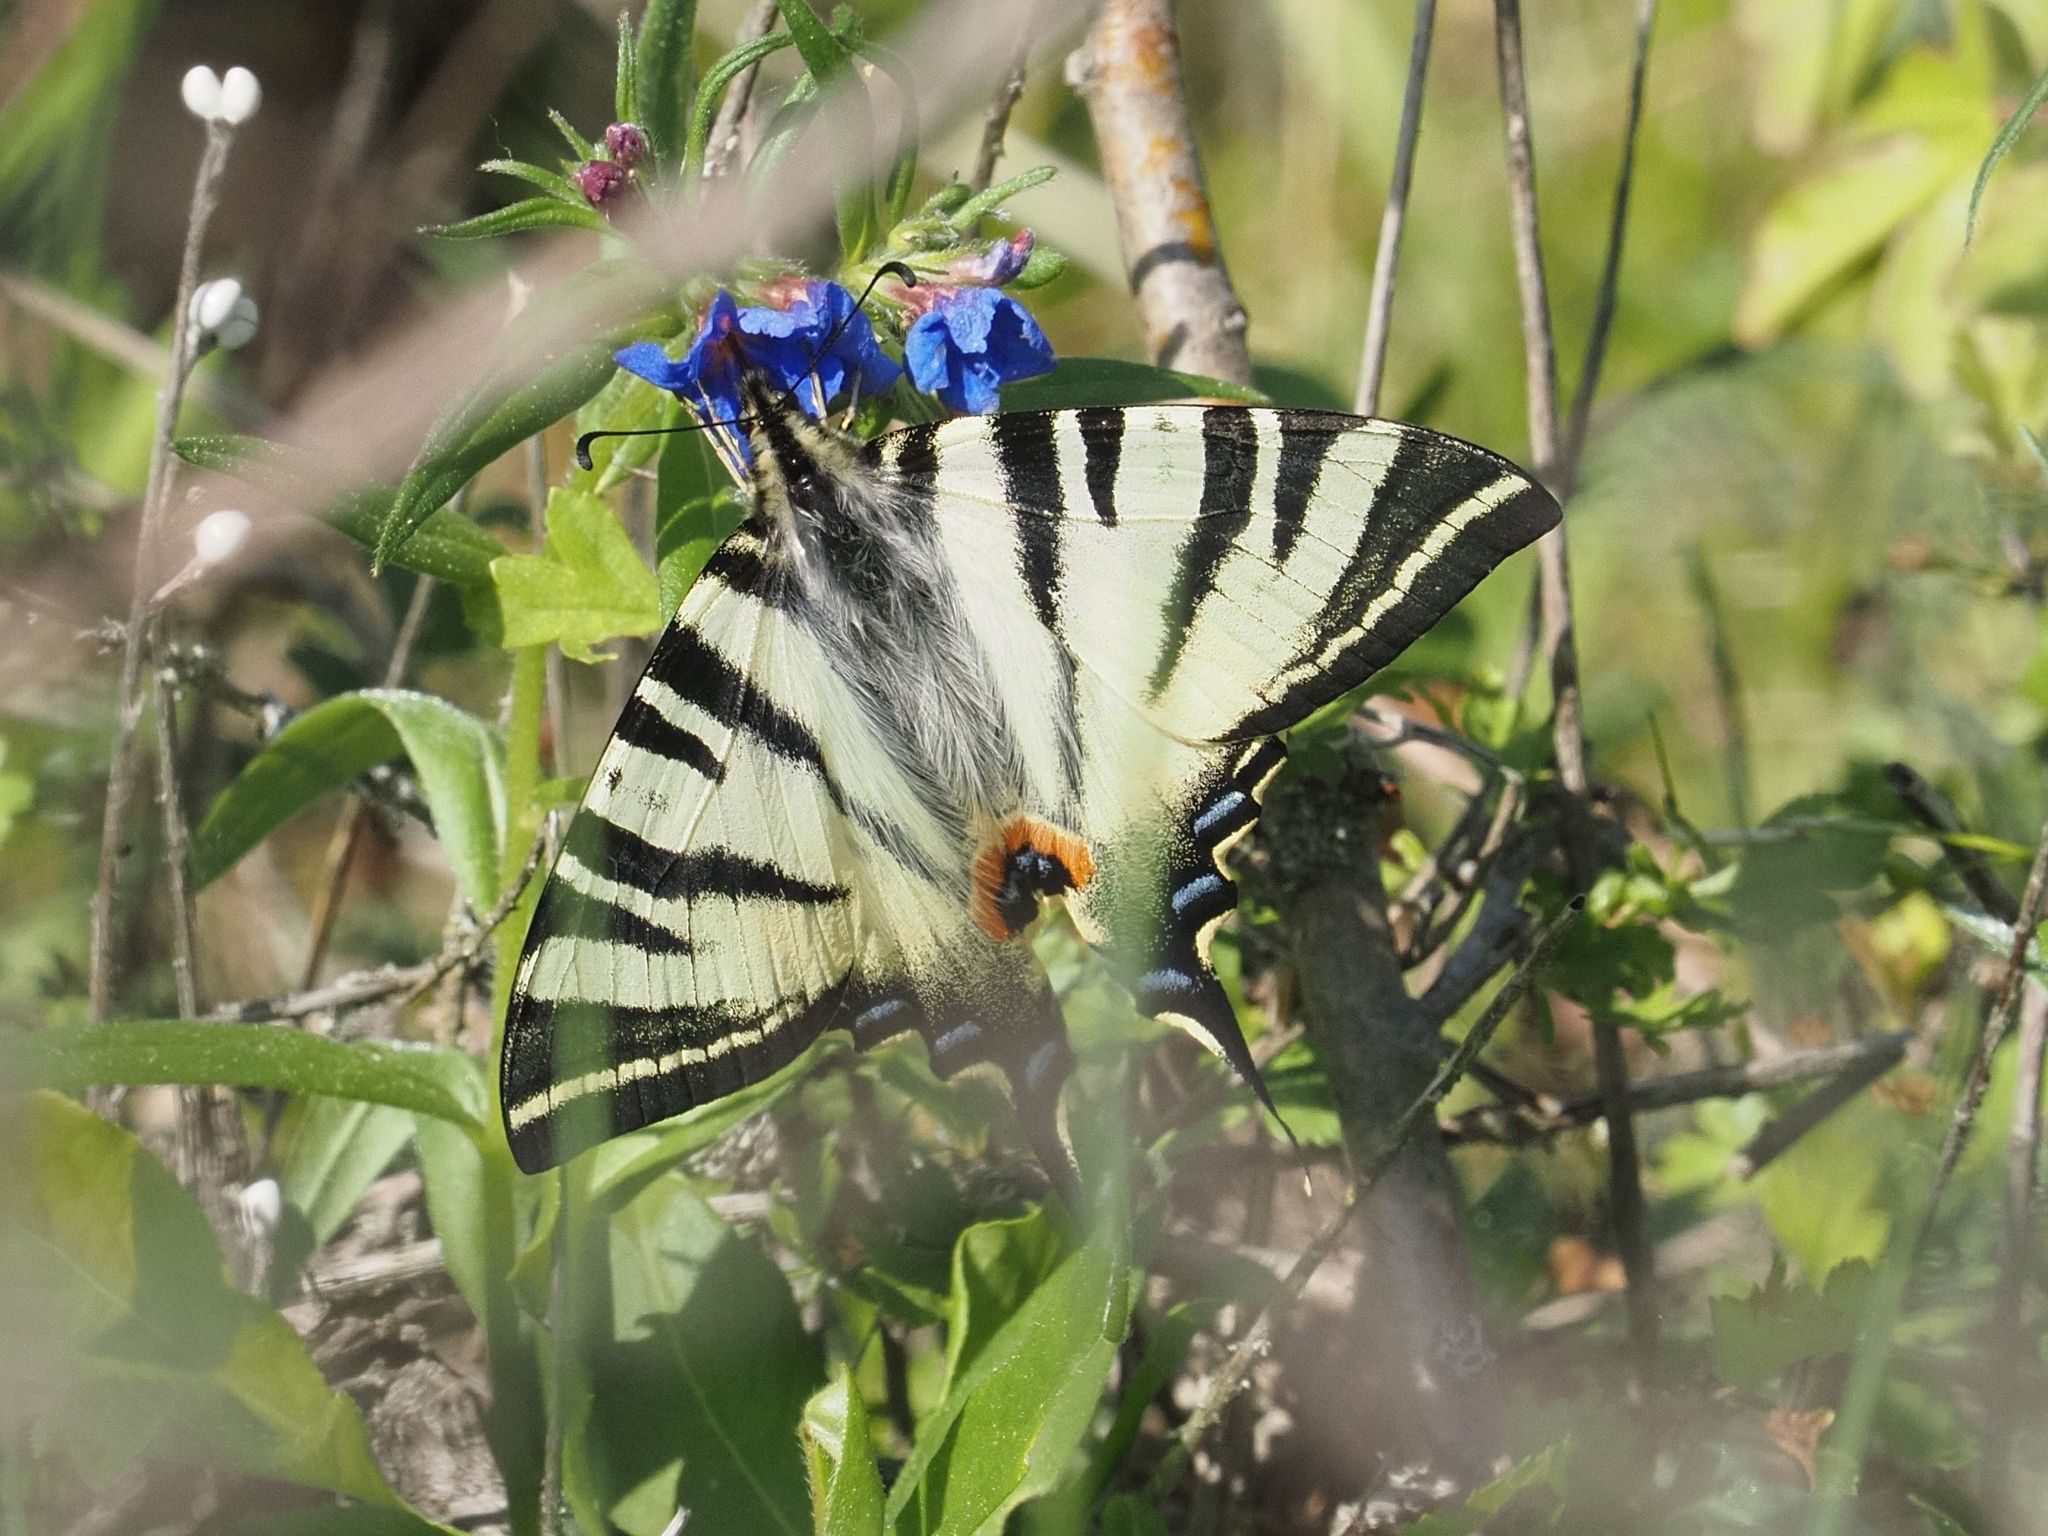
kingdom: Animalia
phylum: Arthropoda
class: Insecta
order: Lepidoptera
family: Papilionidae
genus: Iphiclides
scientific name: Iphiclides podalirius
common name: Scarce swallowtail
